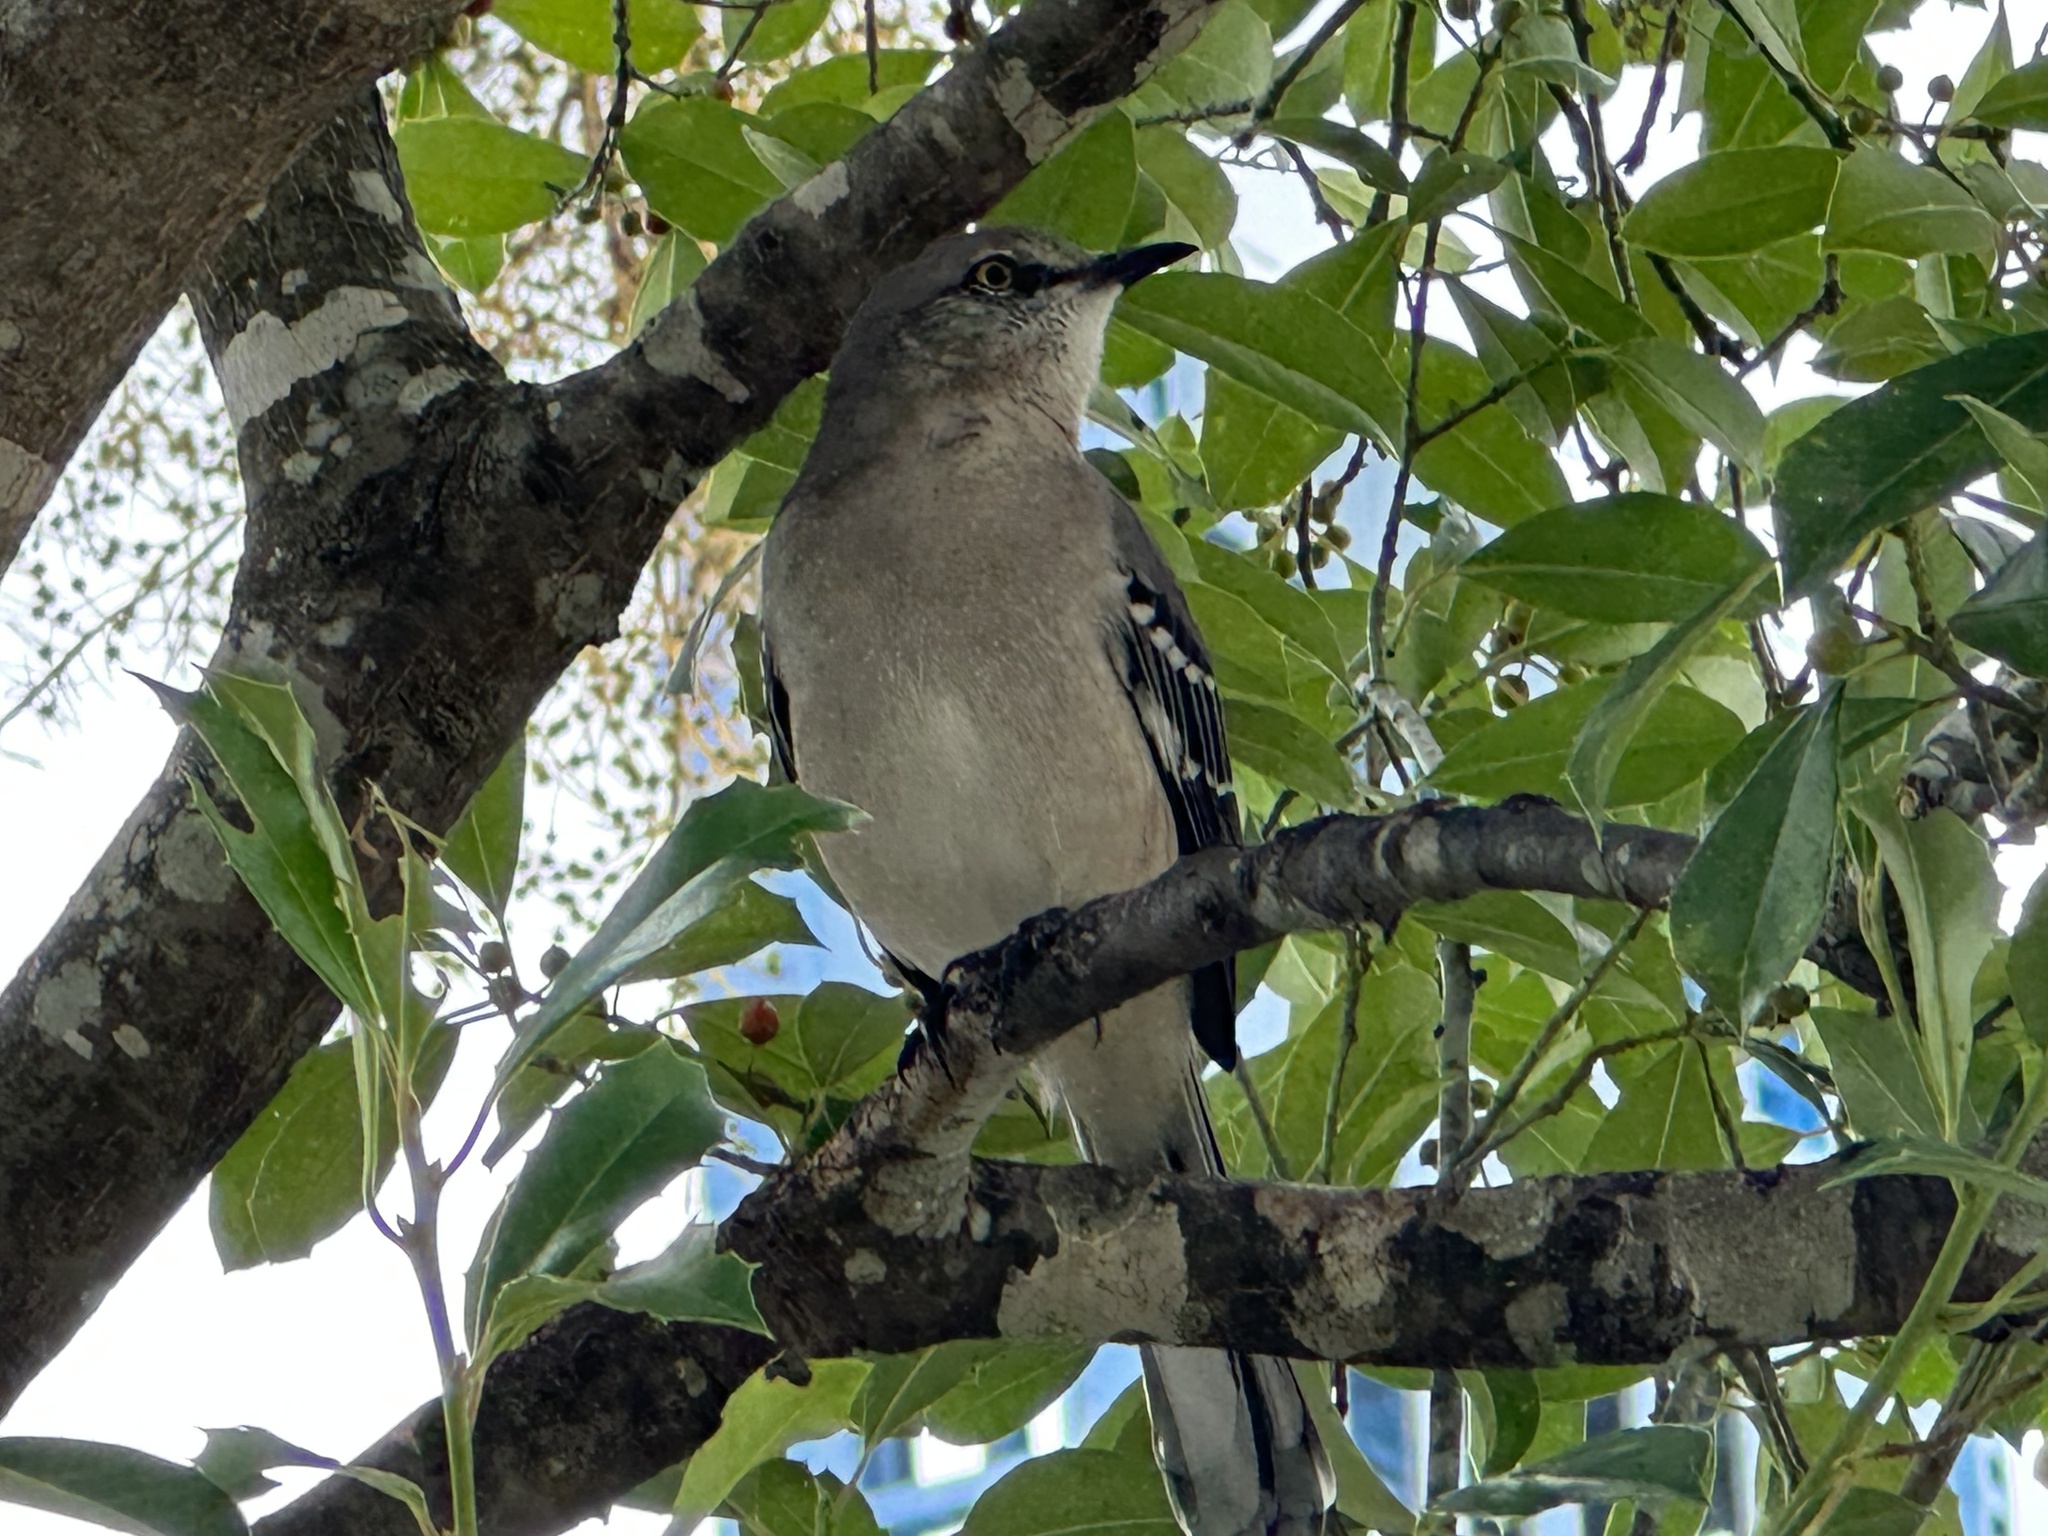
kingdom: Animalia
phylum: Chordata
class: Aves
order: Passeriformes
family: Mimidae
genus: Mimus
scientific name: Mimus polyglottos
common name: Northern mockingbird
